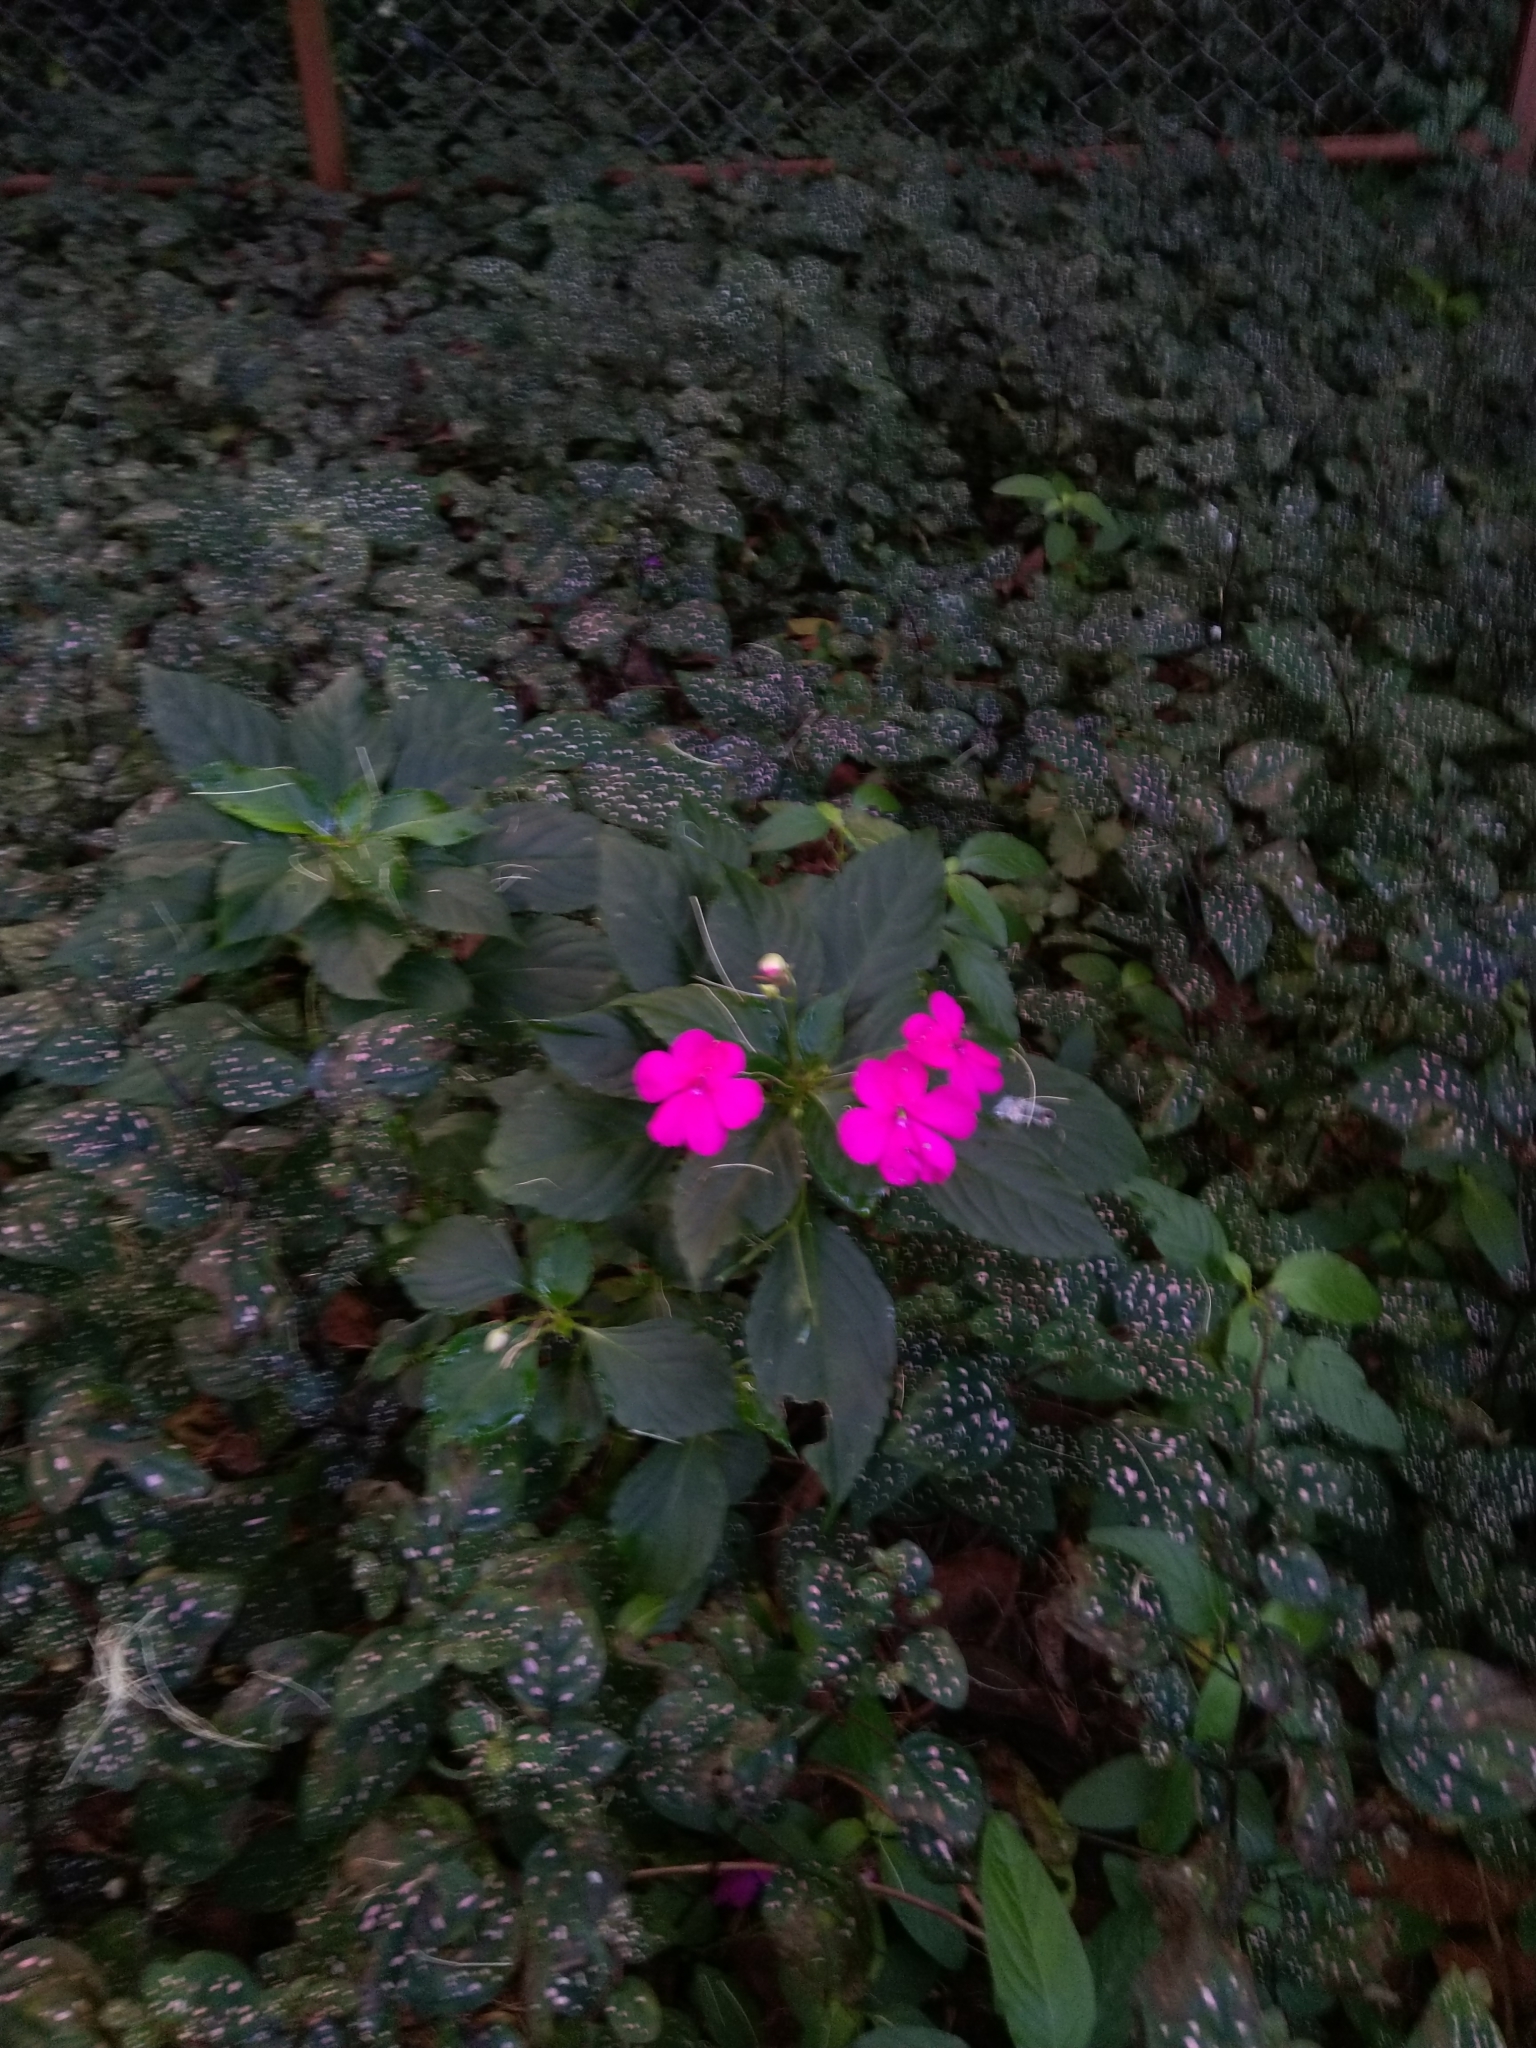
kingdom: Plantae
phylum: Tracheophyta
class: Magnoliopsida
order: Ericales
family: Balsaminaceae
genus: Impatiens
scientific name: Impatiens walleriana
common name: Buzzy lizzy
